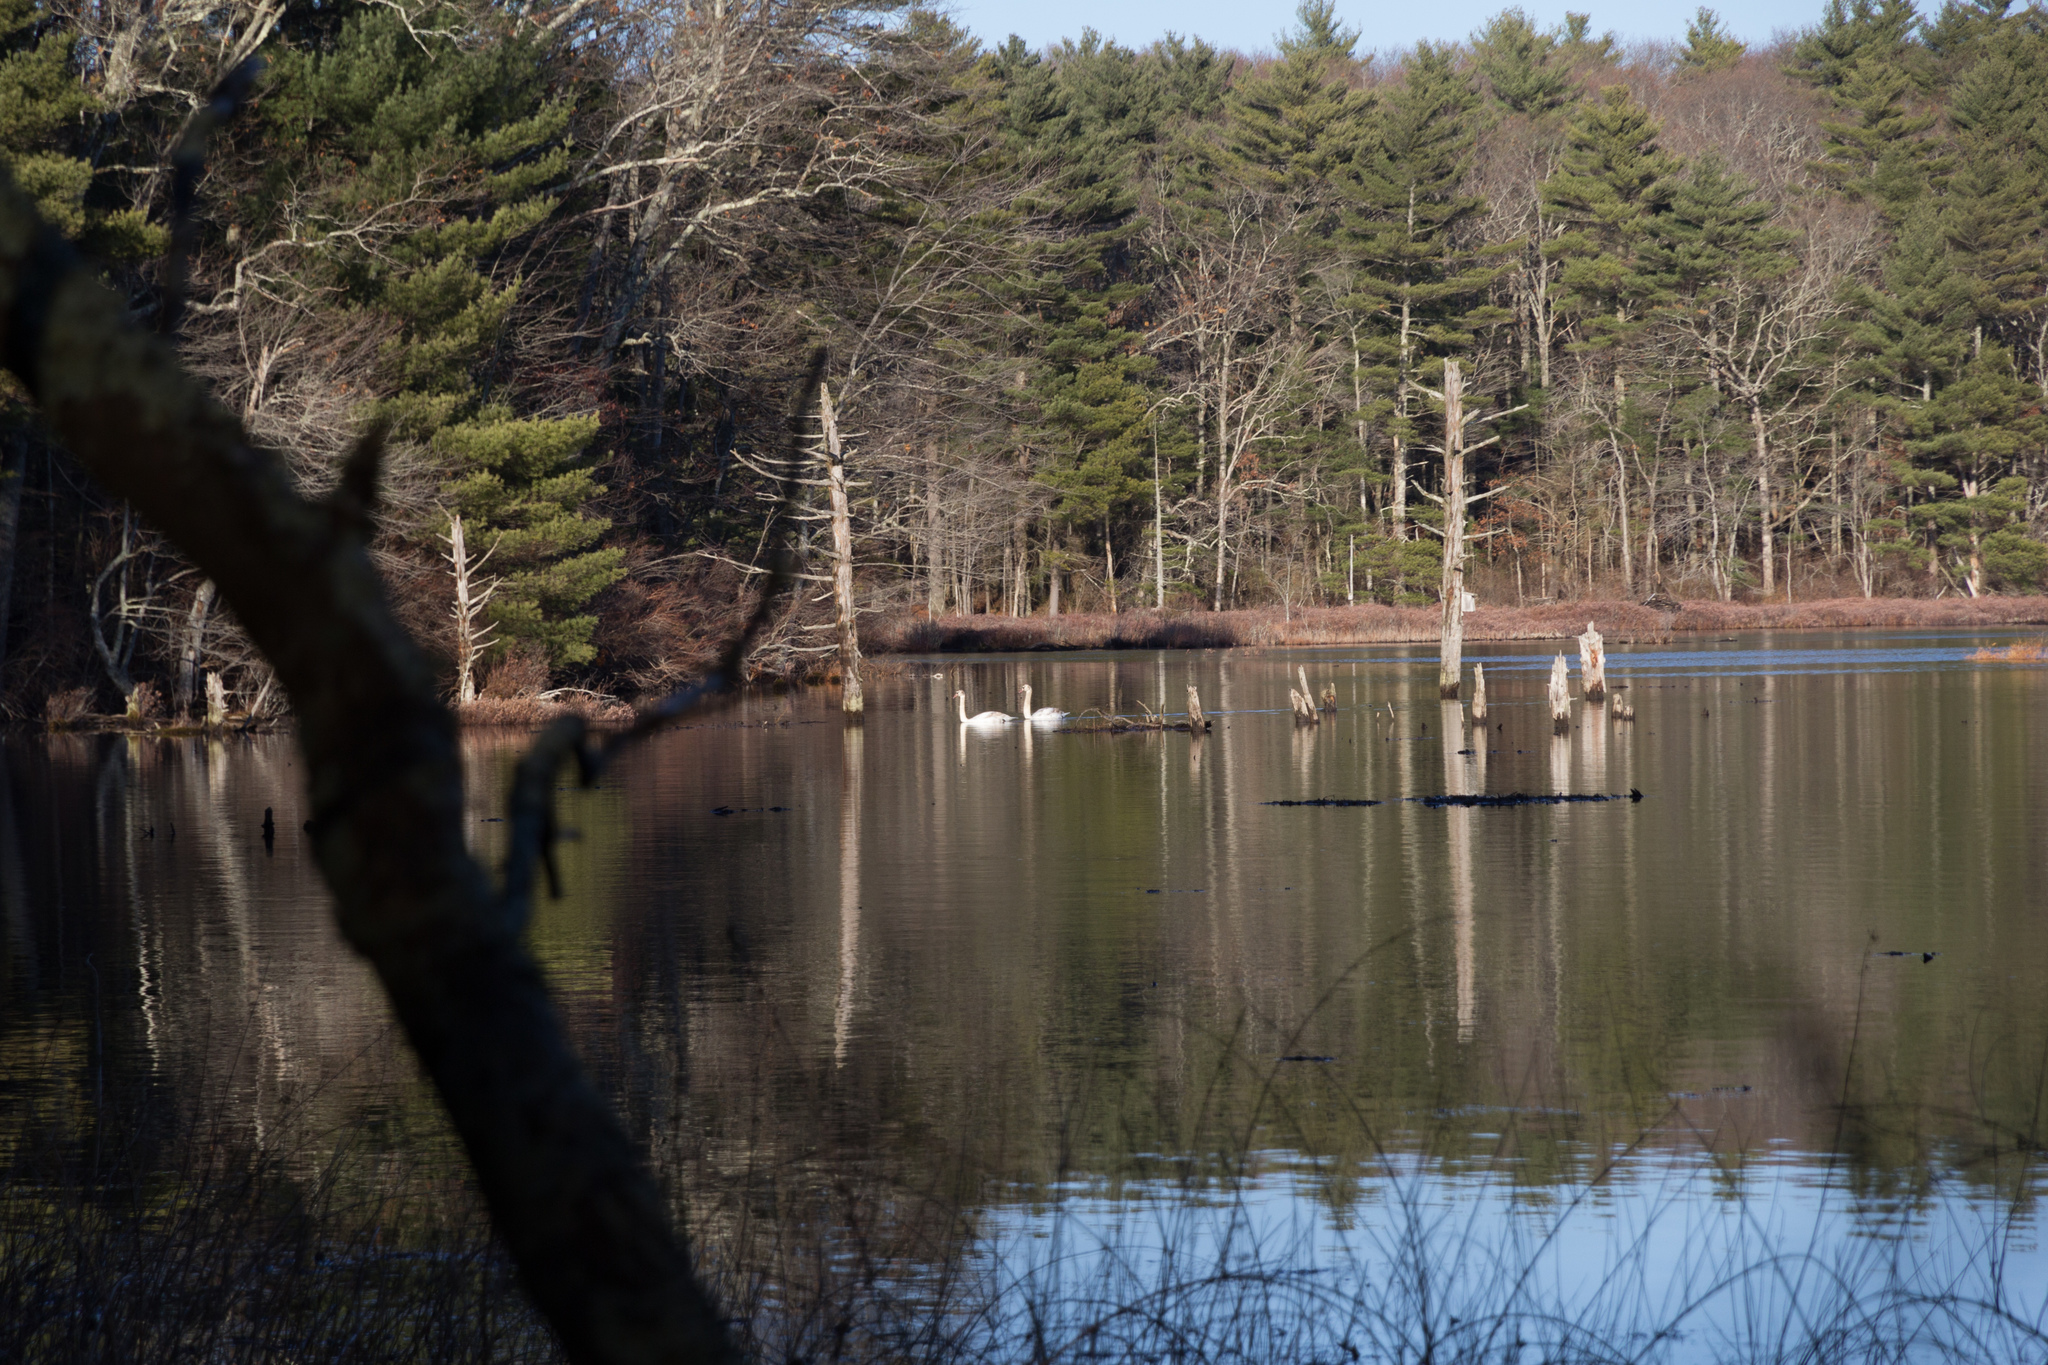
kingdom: Animalia
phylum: Chordata
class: Aves
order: Anseriformes
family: Anatidae
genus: Cygnus
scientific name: Cygnus olor
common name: Mute swan
